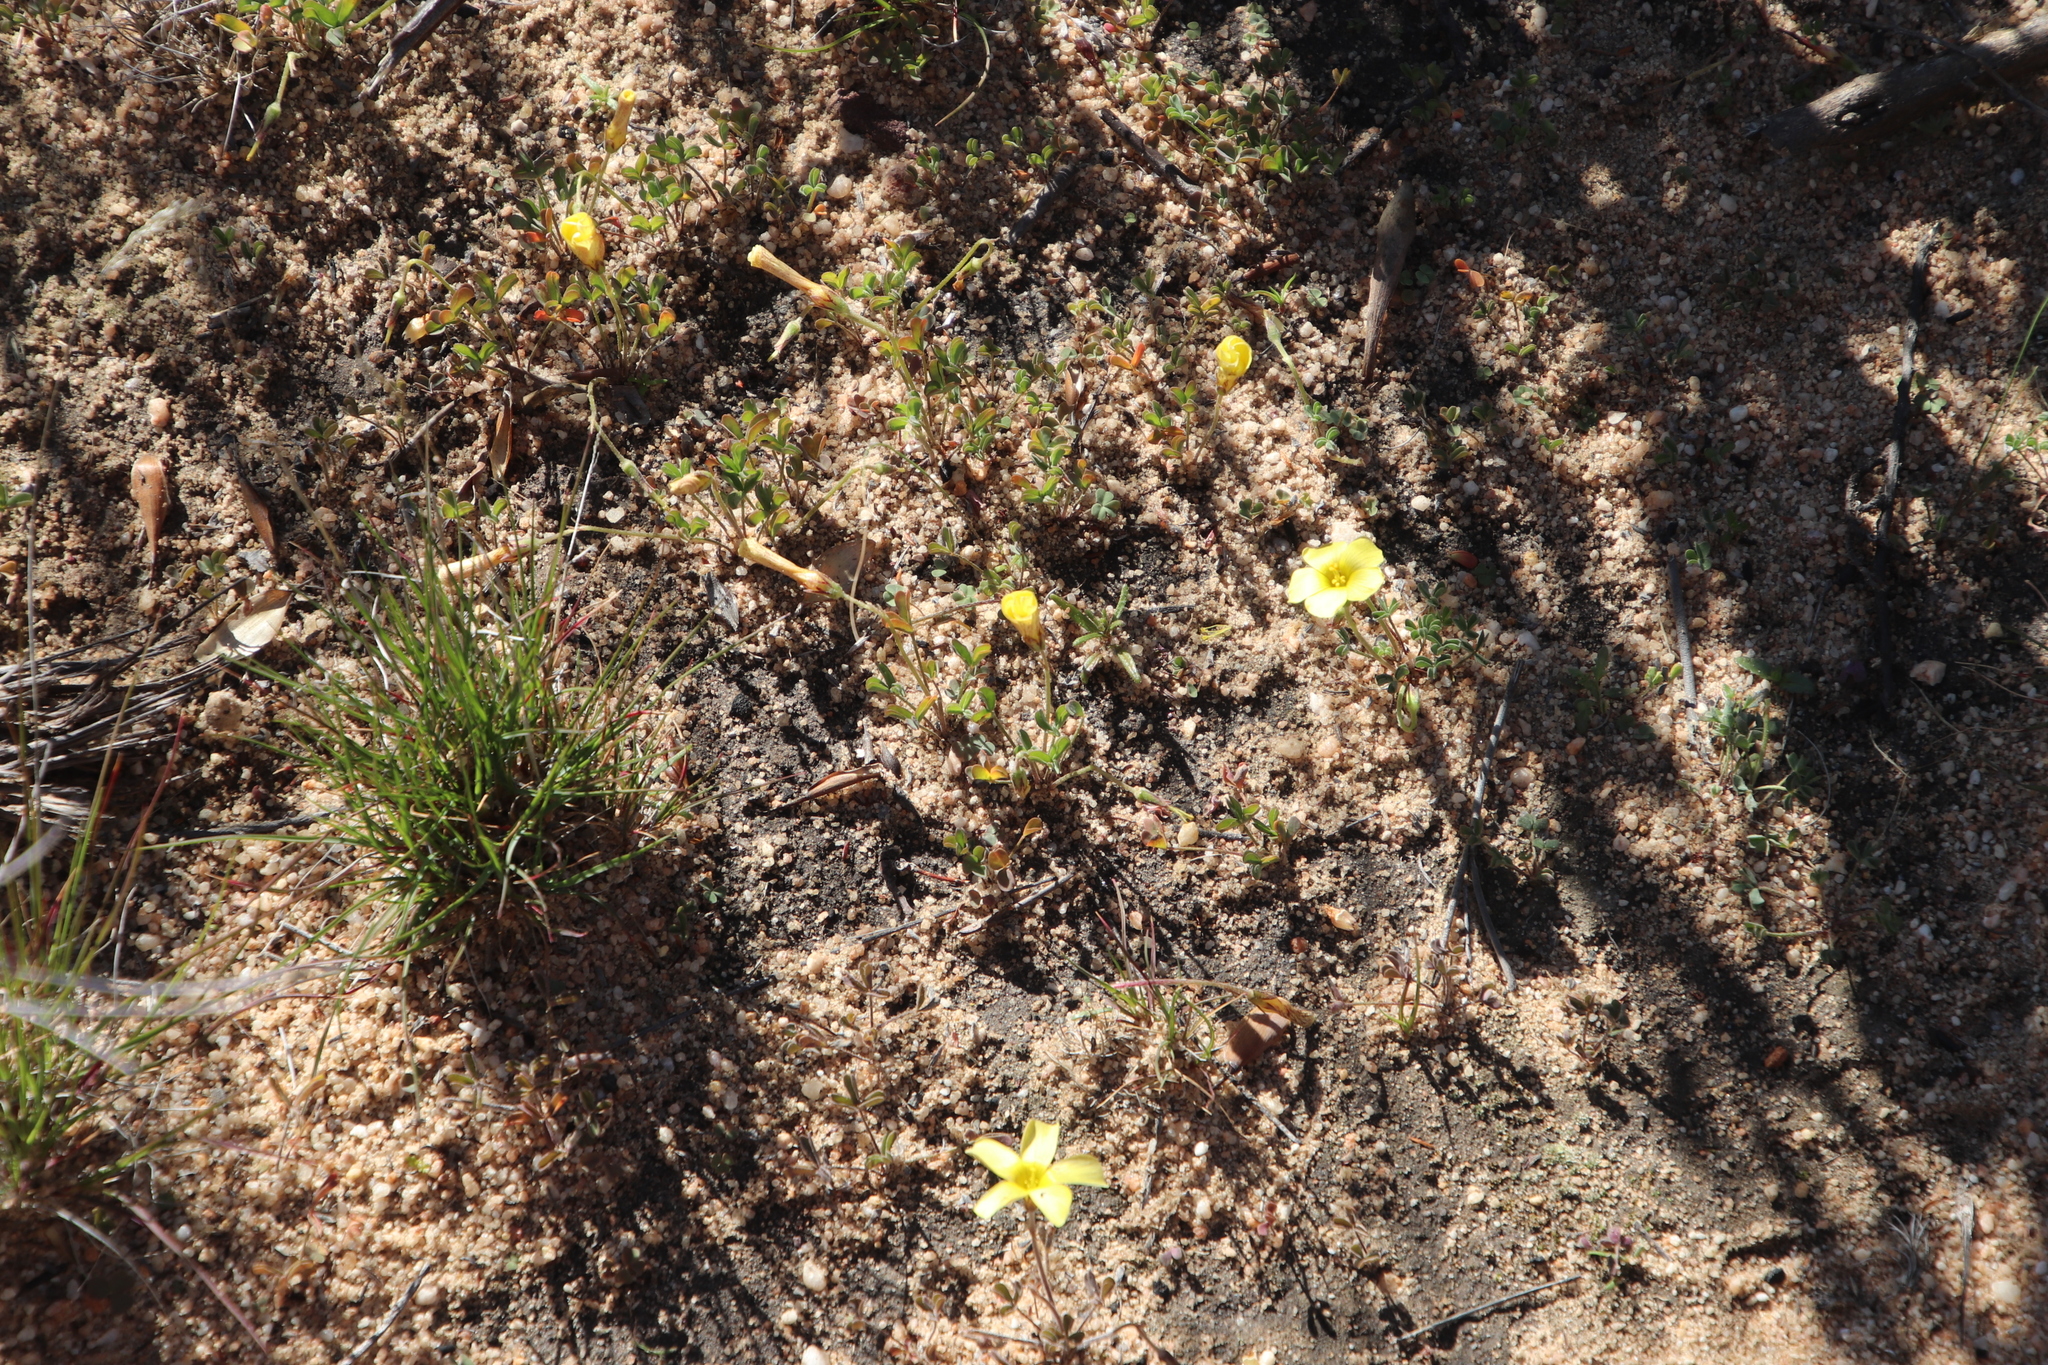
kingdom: Plantae
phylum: Tracheophyta
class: Magnoliopsida
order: Oxalidales
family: Oxalidaceae
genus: Oxalis
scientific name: Oxalis obtusa
